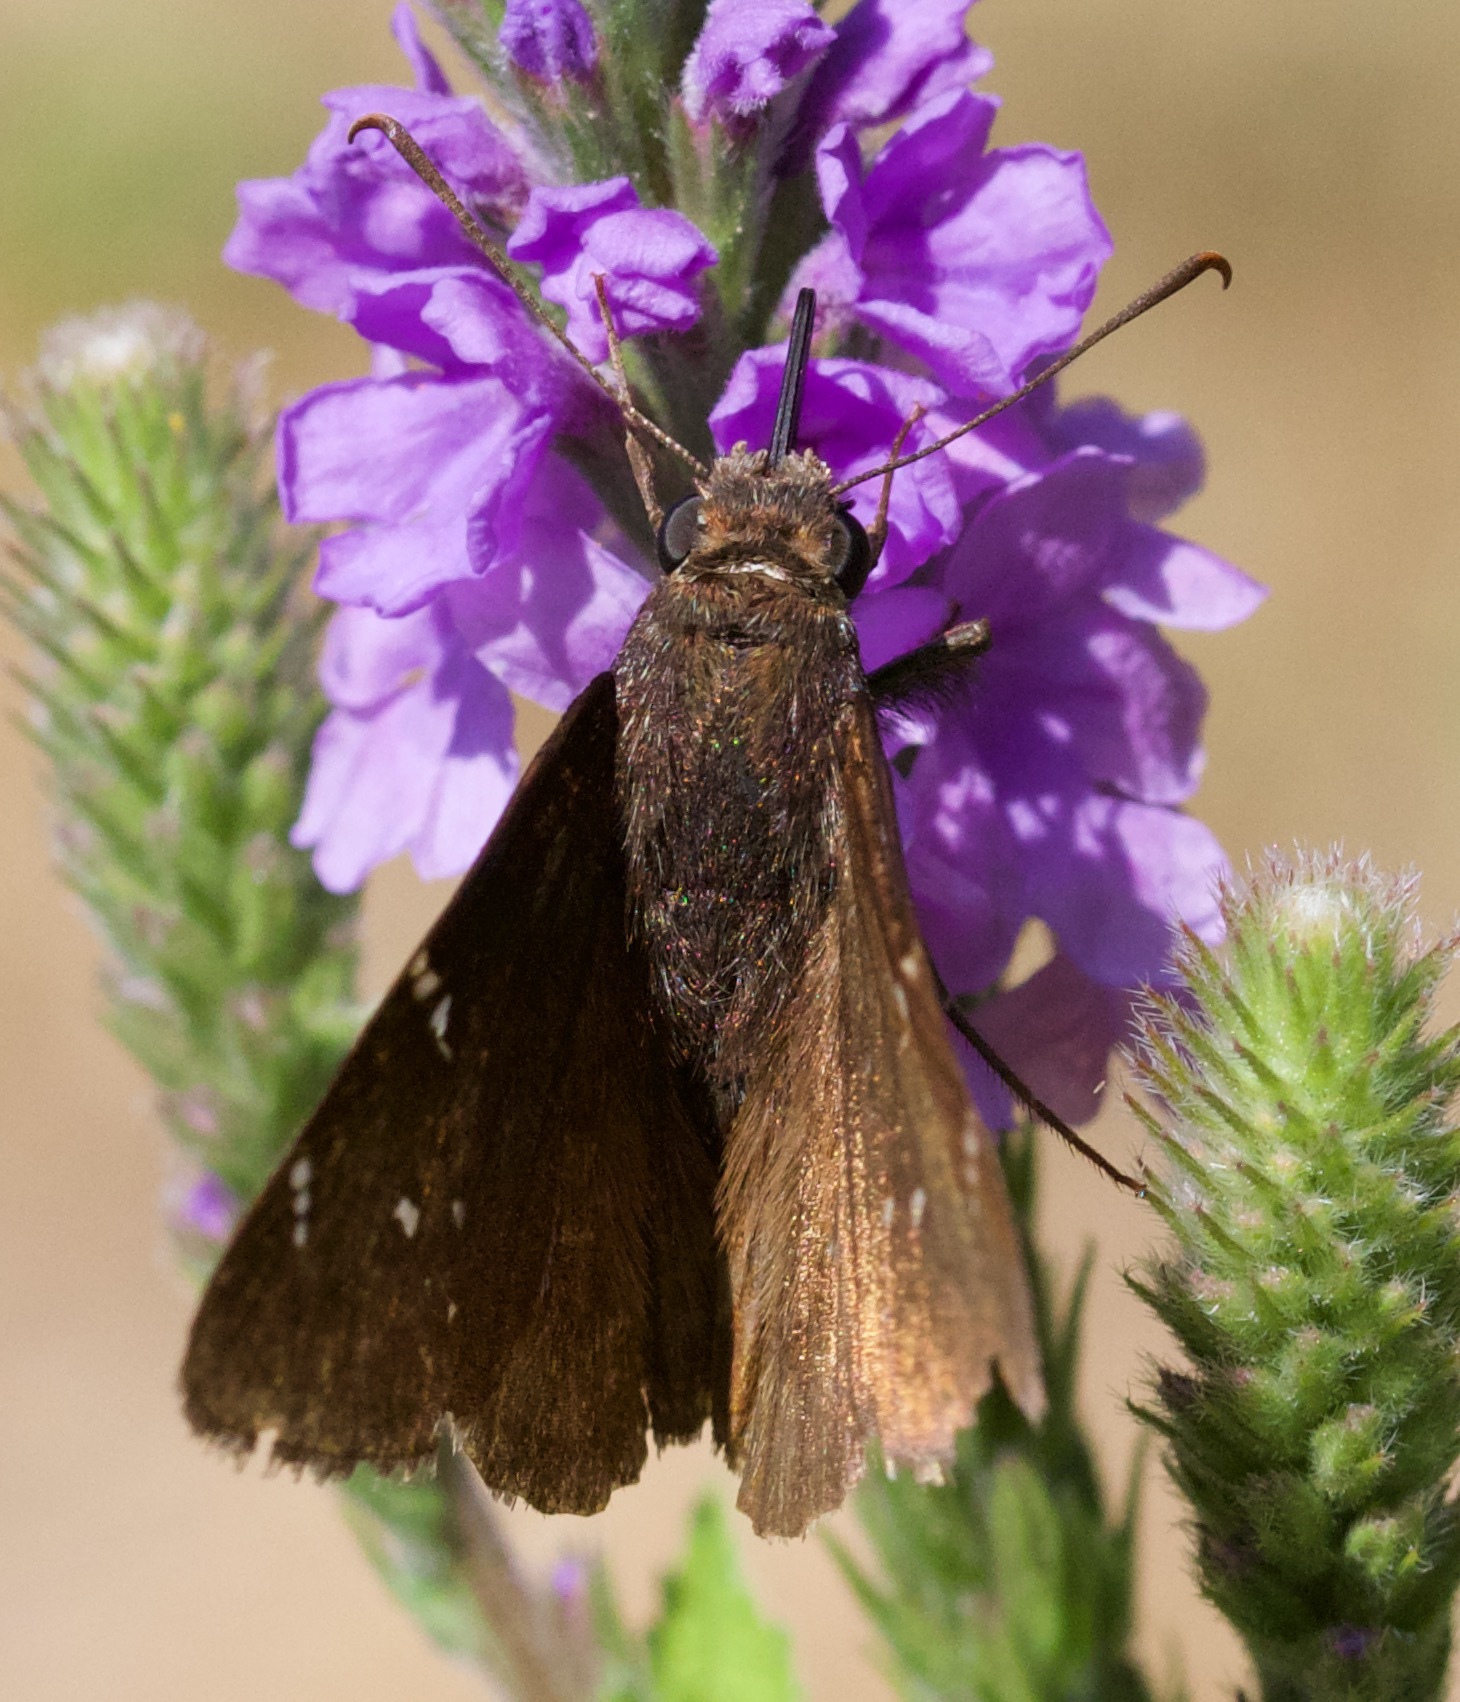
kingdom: Animalia
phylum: Arthropoda
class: Insecta
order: Lepidoptera
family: Hesperiidae
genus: Thorybes
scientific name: Thorybes pylades
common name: Northern cloudywing
